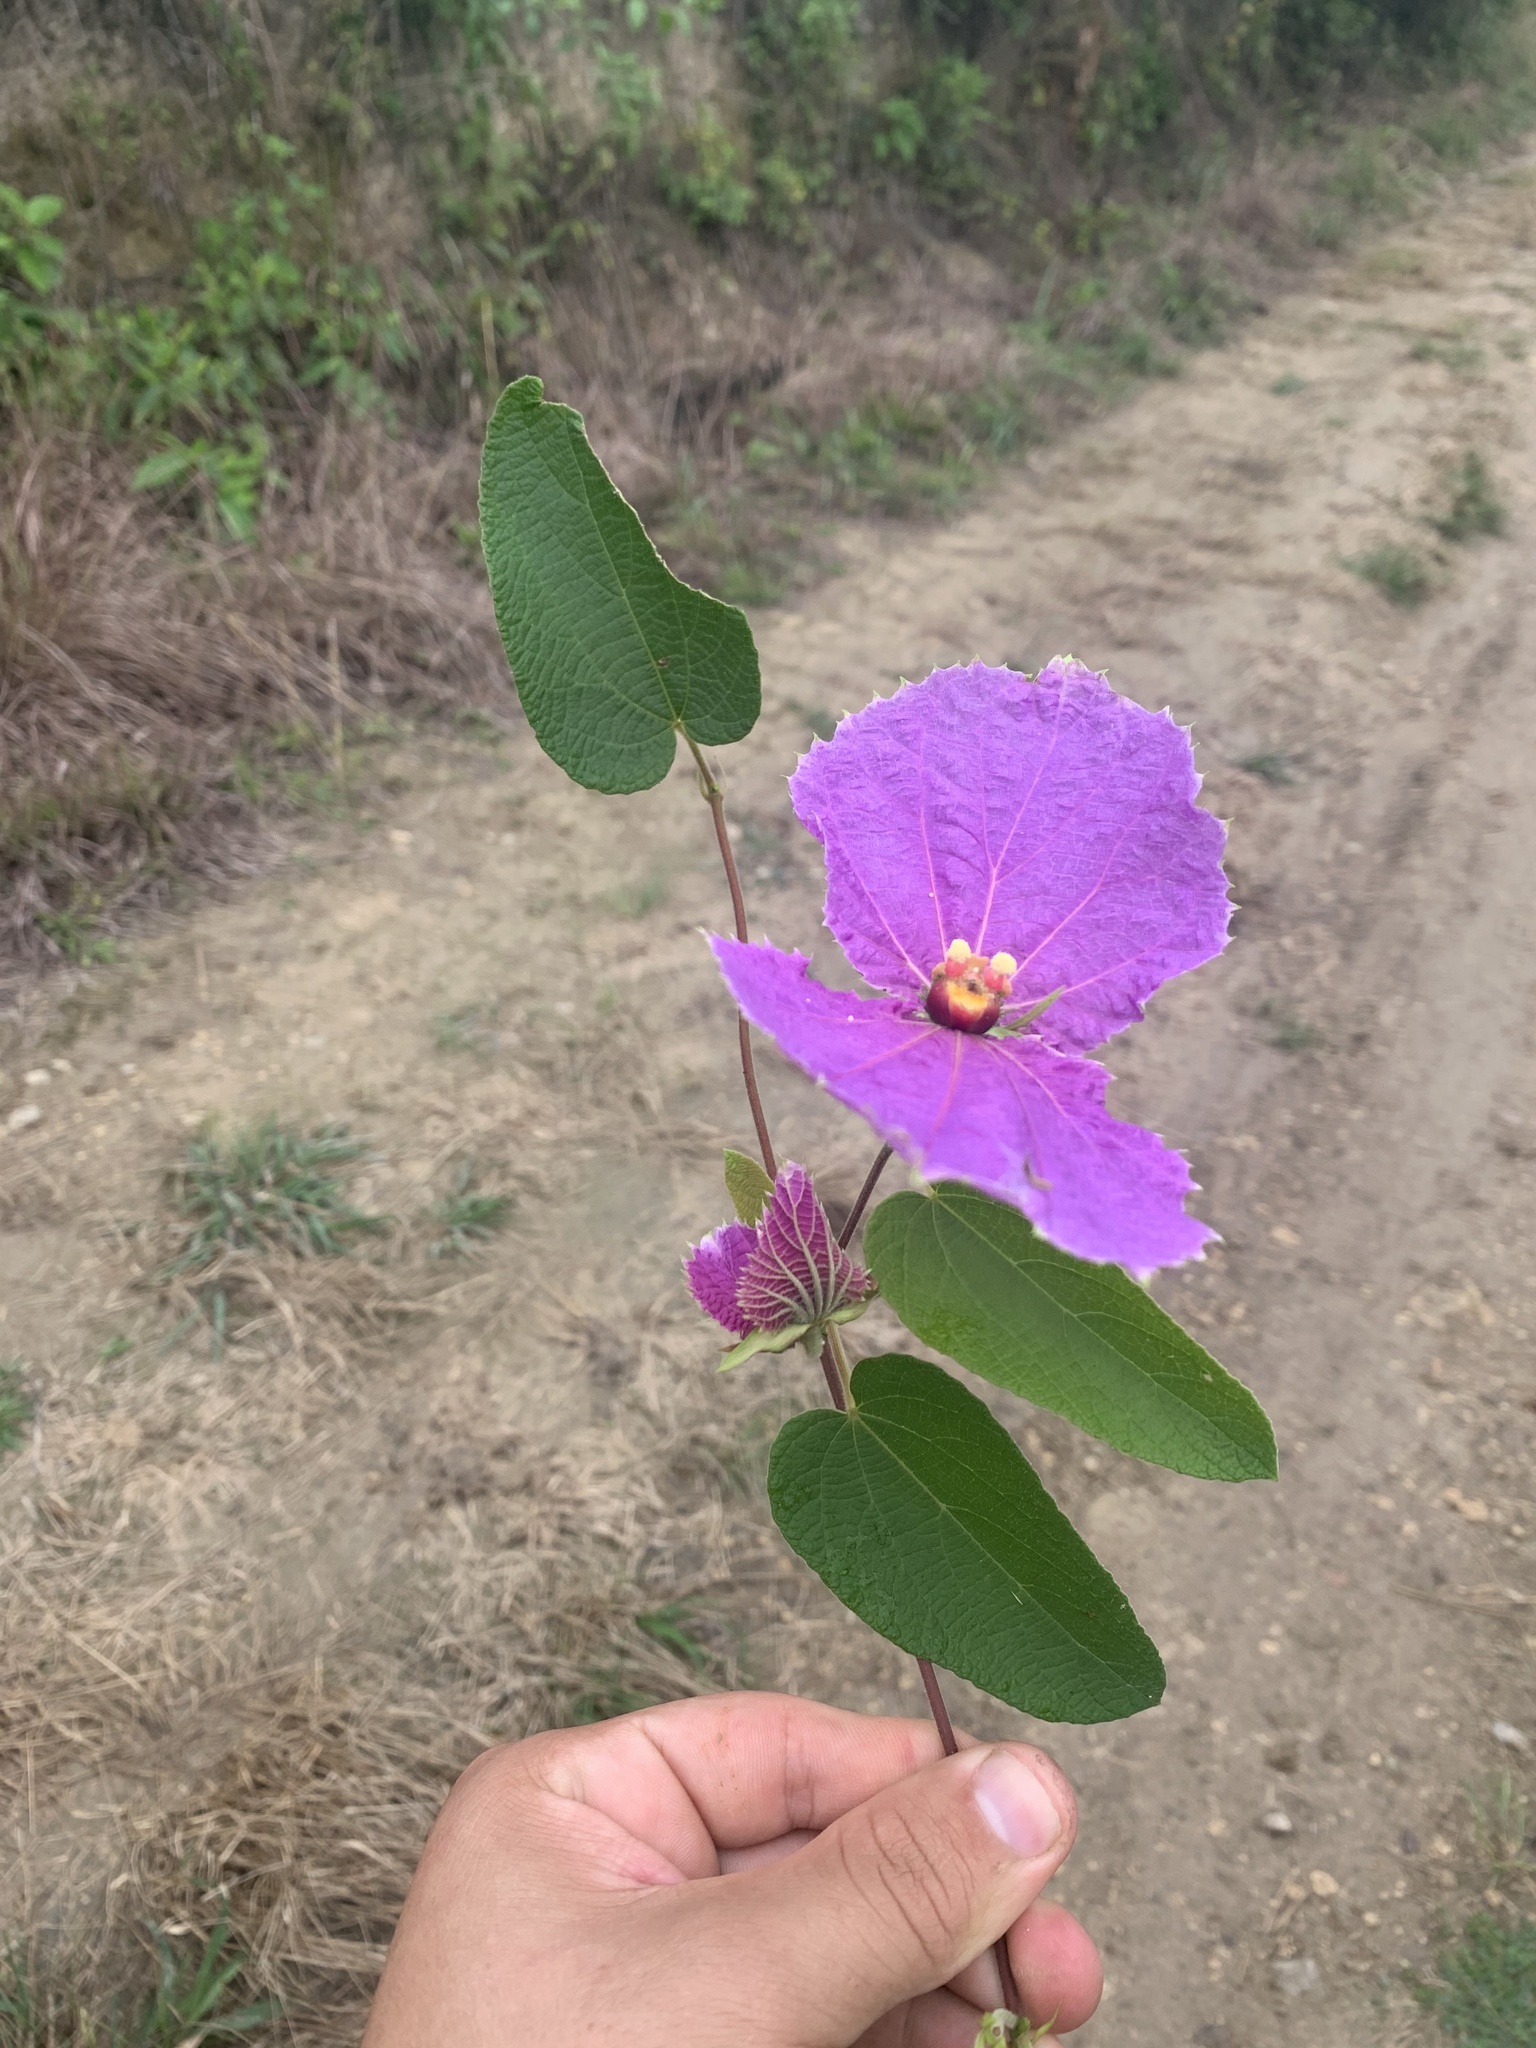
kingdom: Plantae
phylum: Tracheophyta
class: Magnoliopsida
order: Malpighiales
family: Euphorbiaceae
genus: Dalechampia
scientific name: Dalechampia aristolochiifolia
